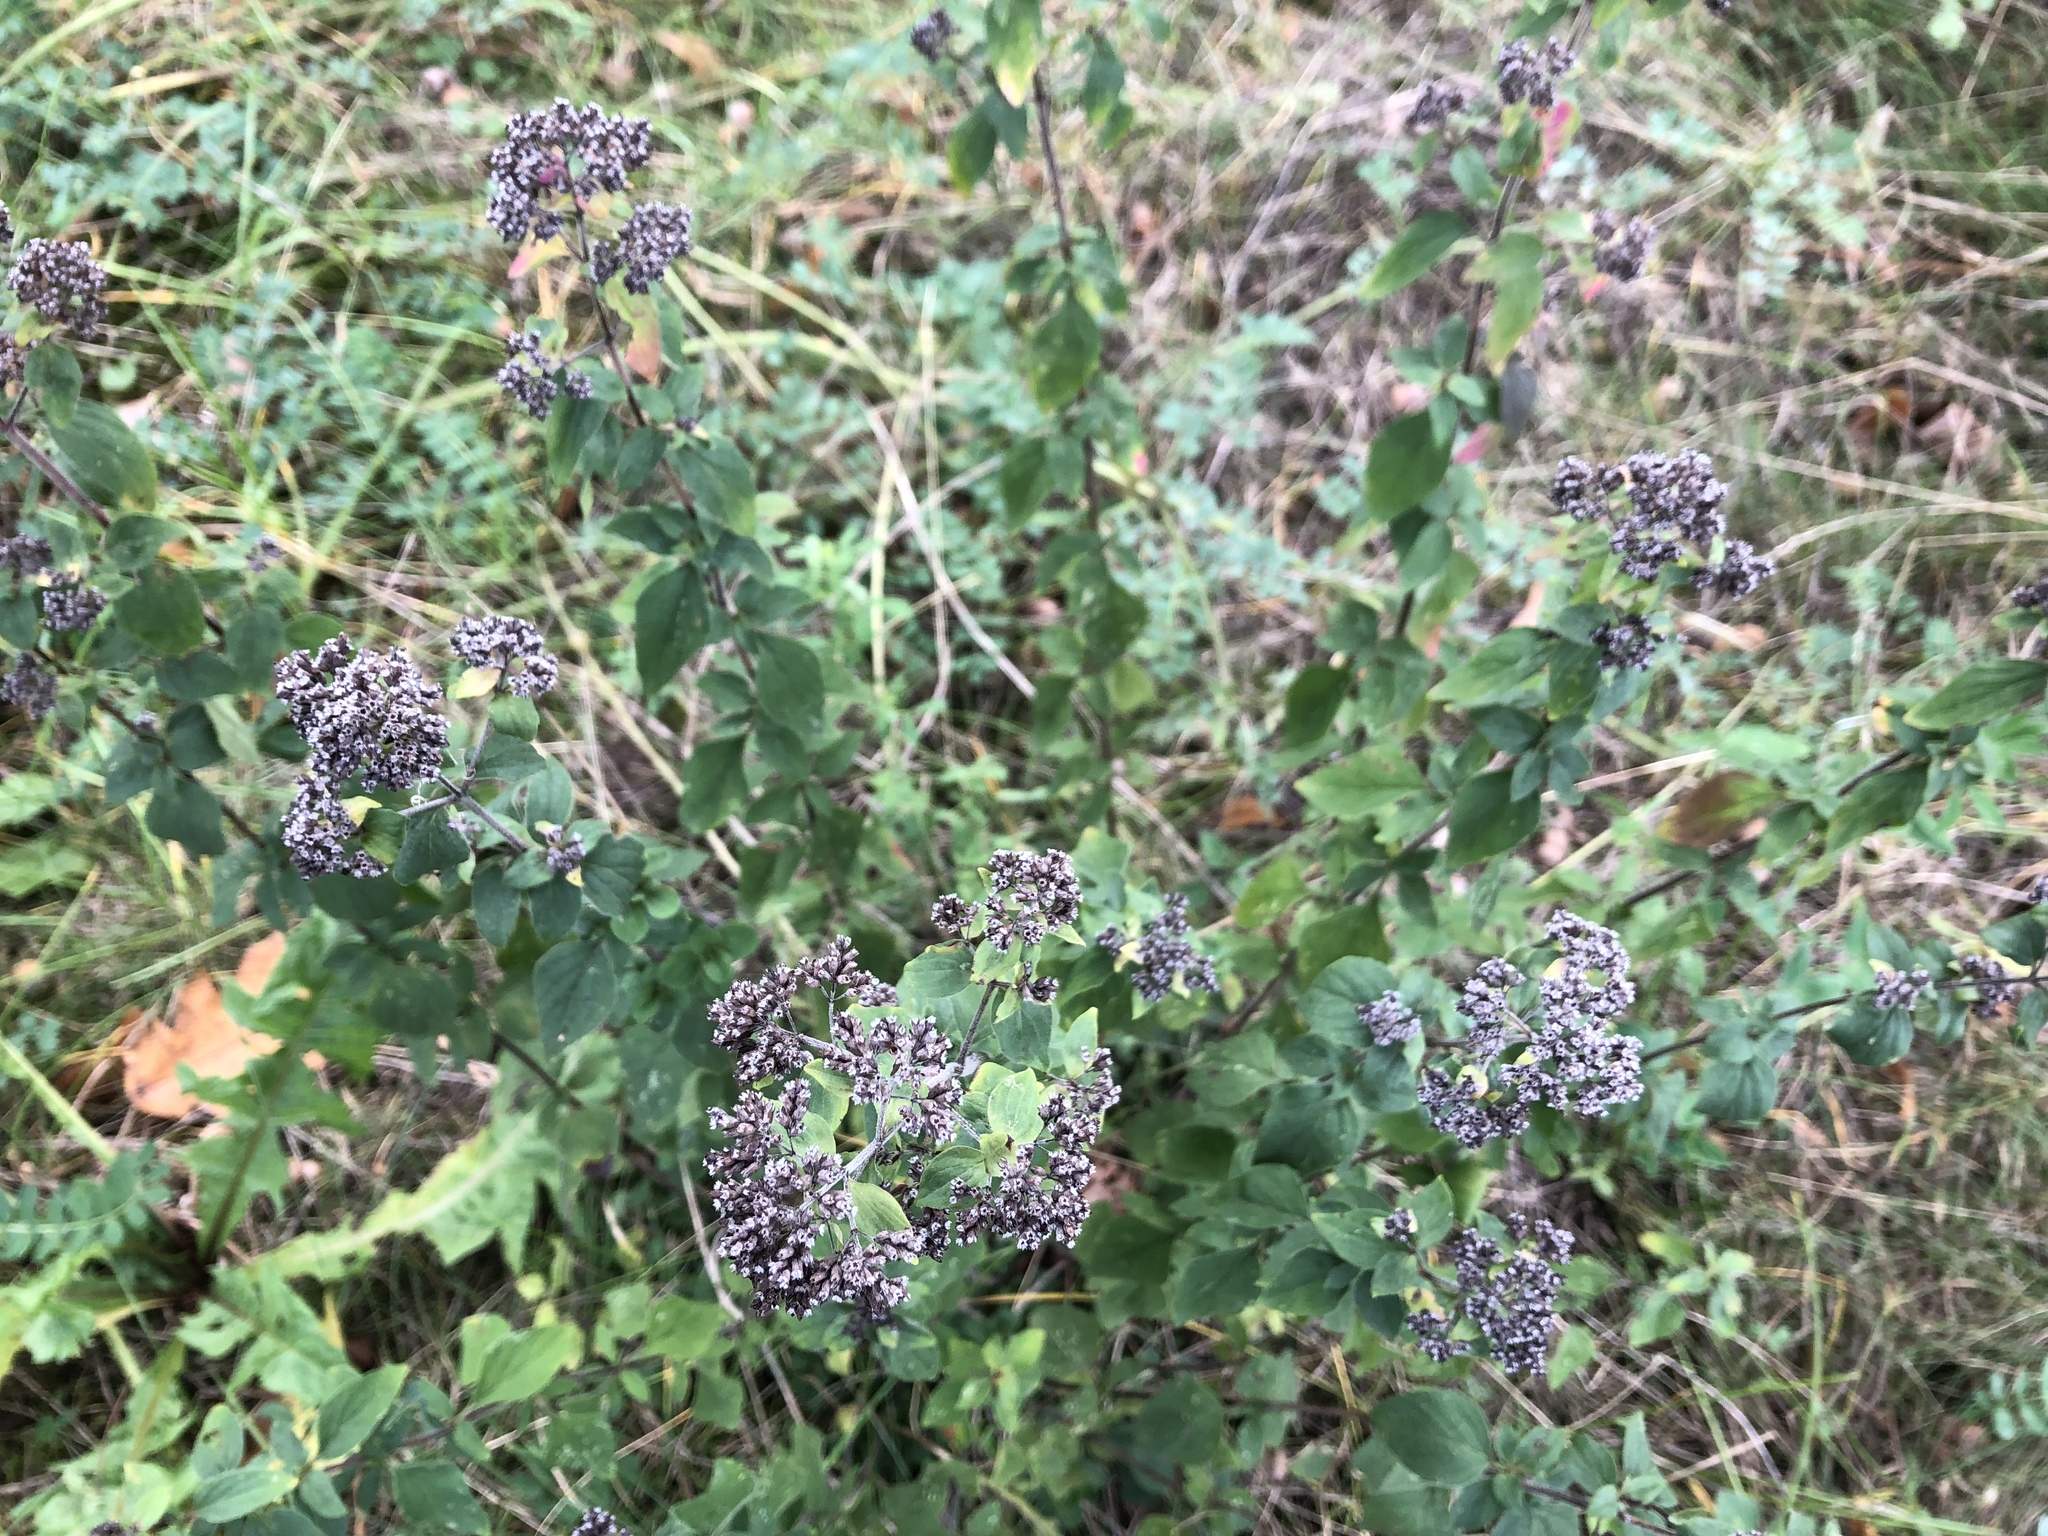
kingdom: Plantae
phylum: Tracheophyta
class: Magnoliopsida
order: Lamiales
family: Lamiaceae
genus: Origanum
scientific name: Origanum vulgare
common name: Wild marjoram
